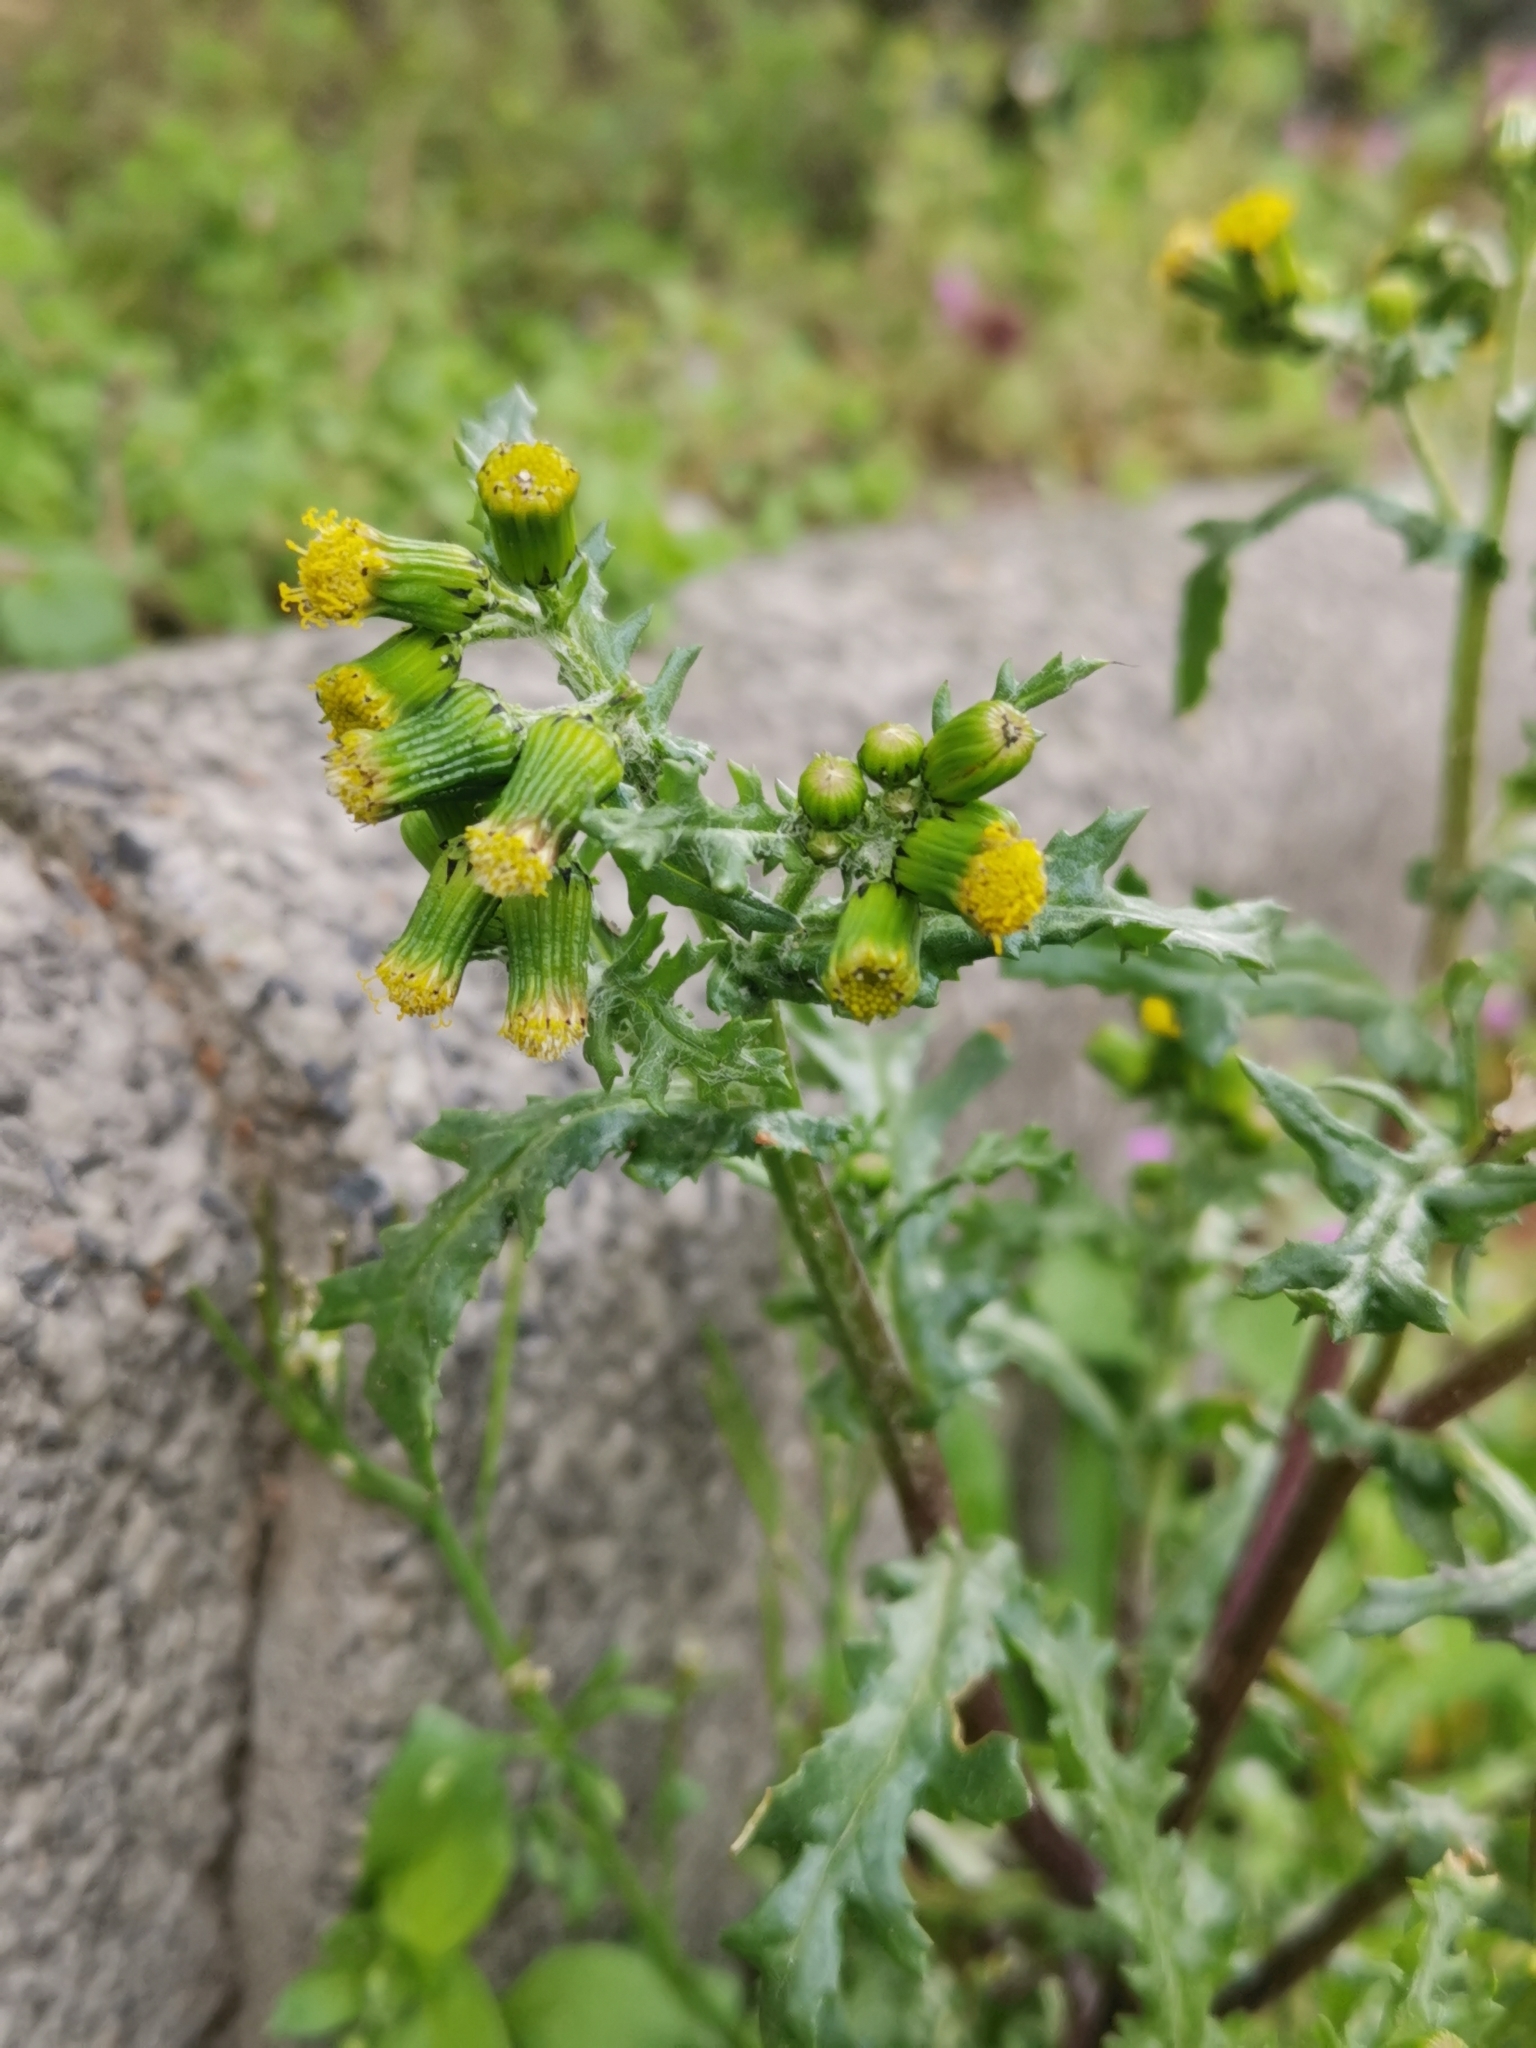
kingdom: Plantae
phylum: Tracheophyta
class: Magnoliopsida
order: Asterales
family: Asteraceae
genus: Senecio
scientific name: Senecio vulgaris
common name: Old-man-in-the-spring
